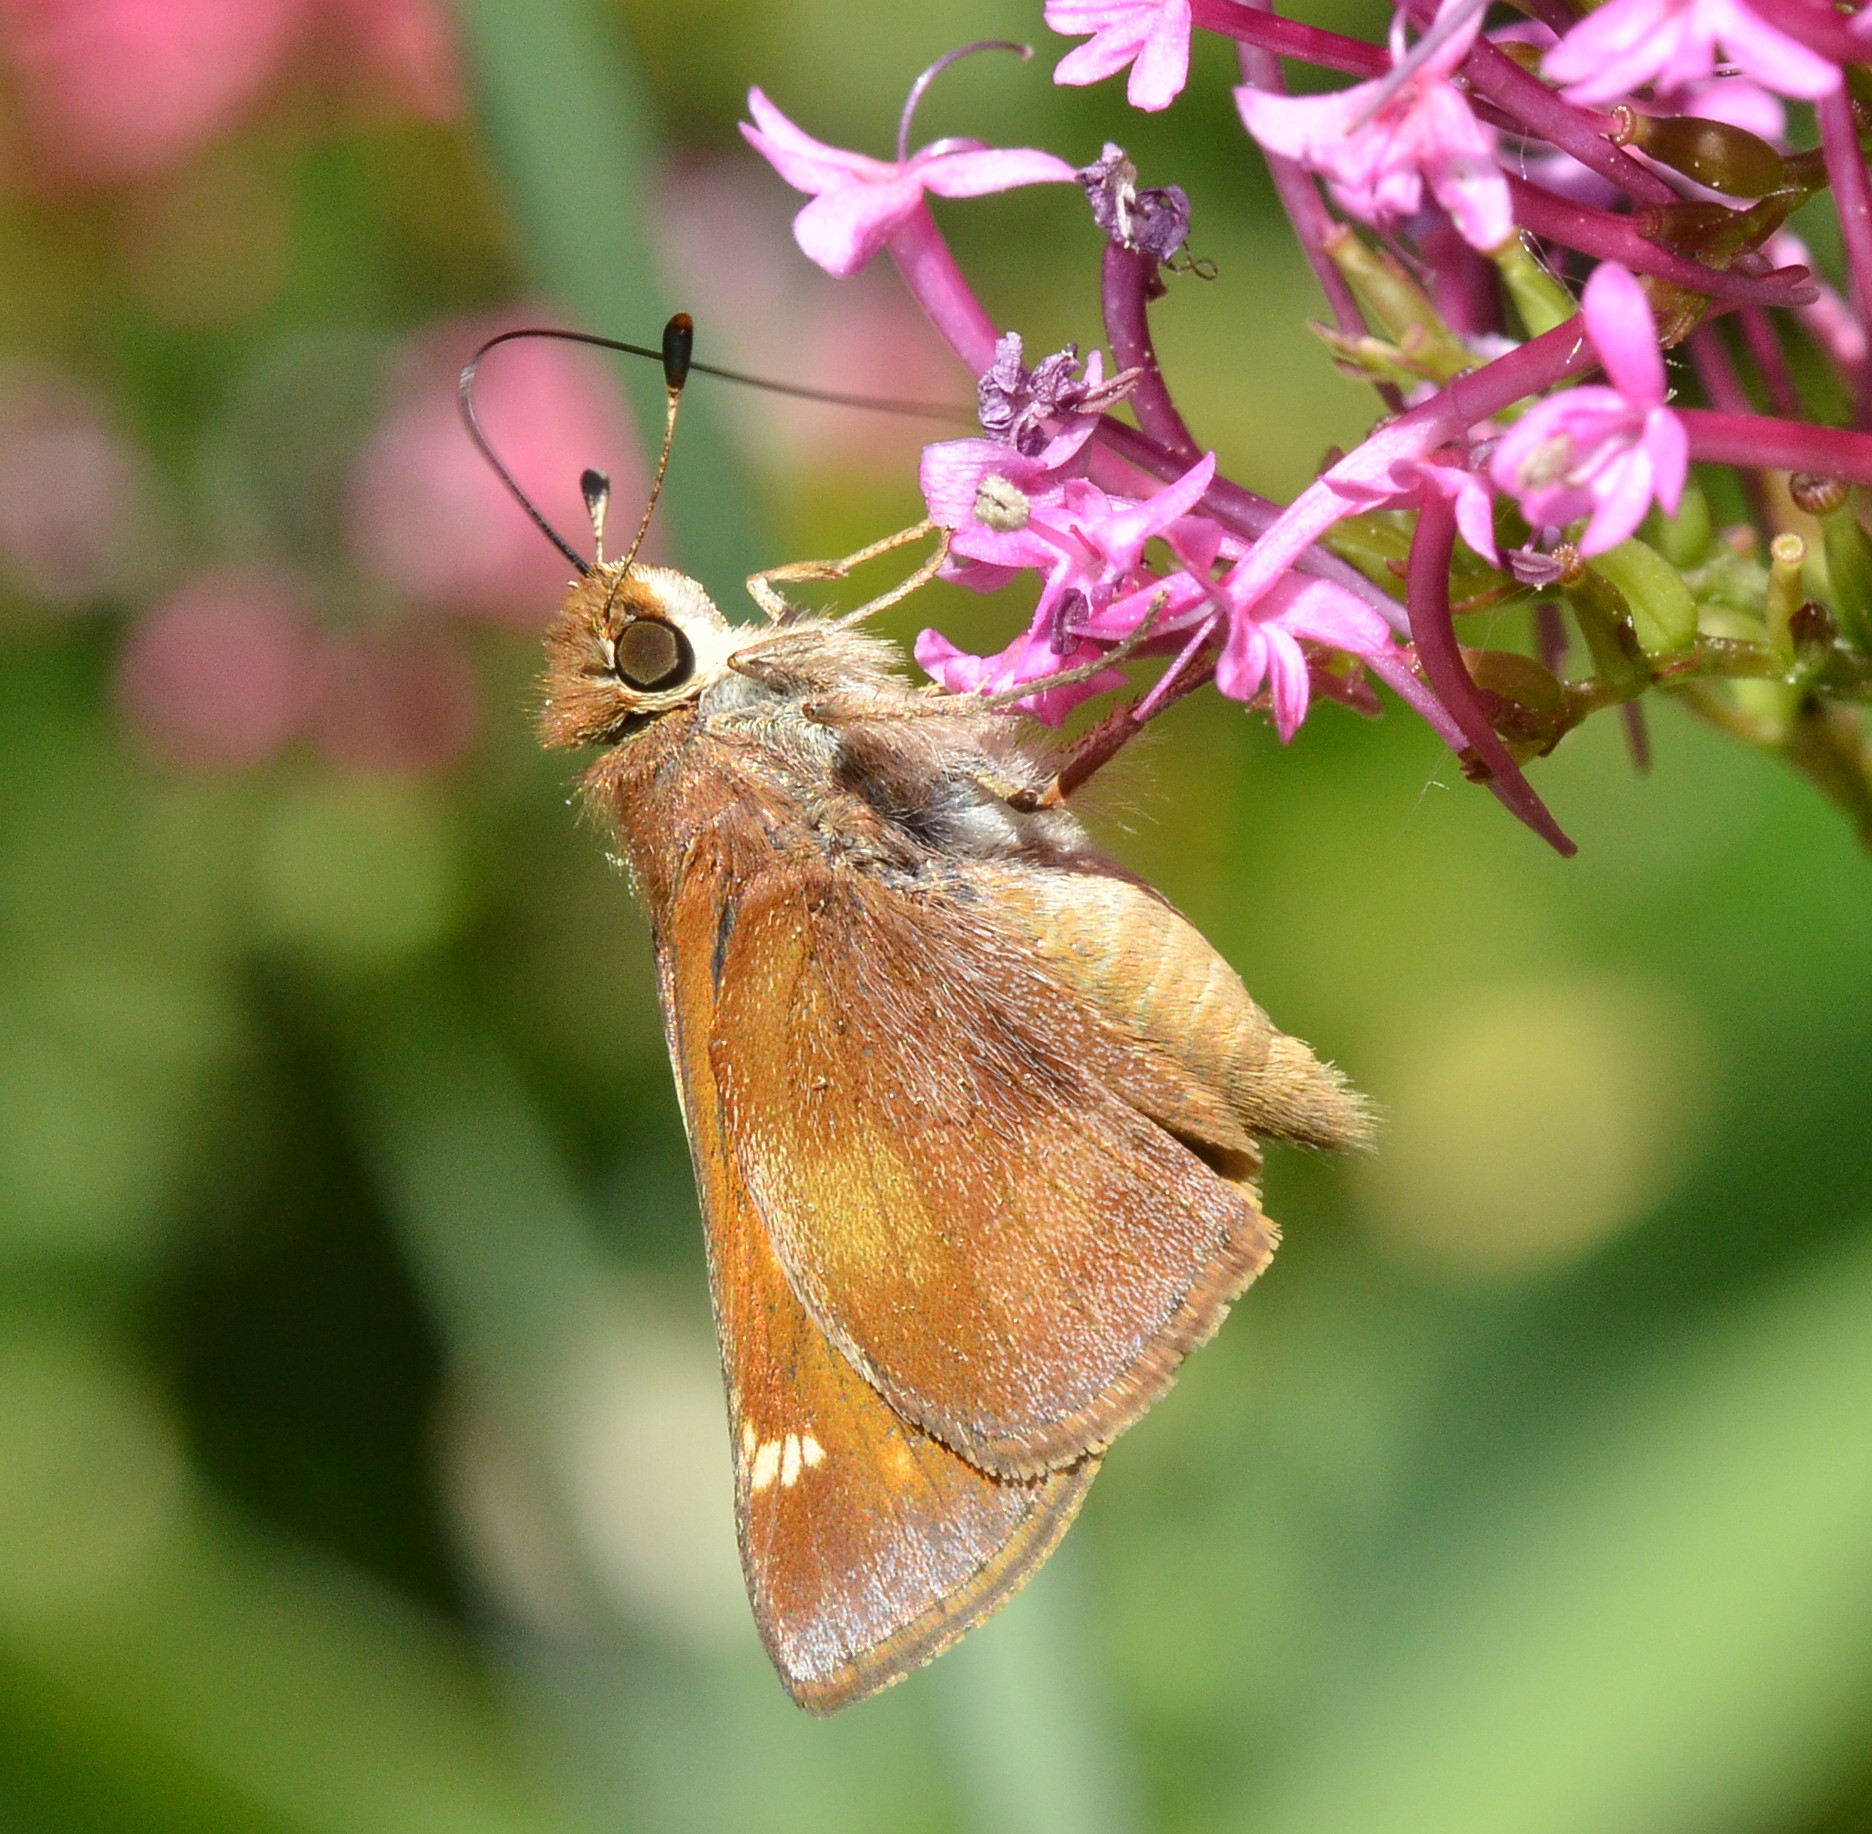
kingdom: Animalia
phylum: Arthropoda
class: Insecta
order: Lepidoptera
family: Hesperiidae
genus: Lon
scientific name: Lon melane
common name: Umber skipper
